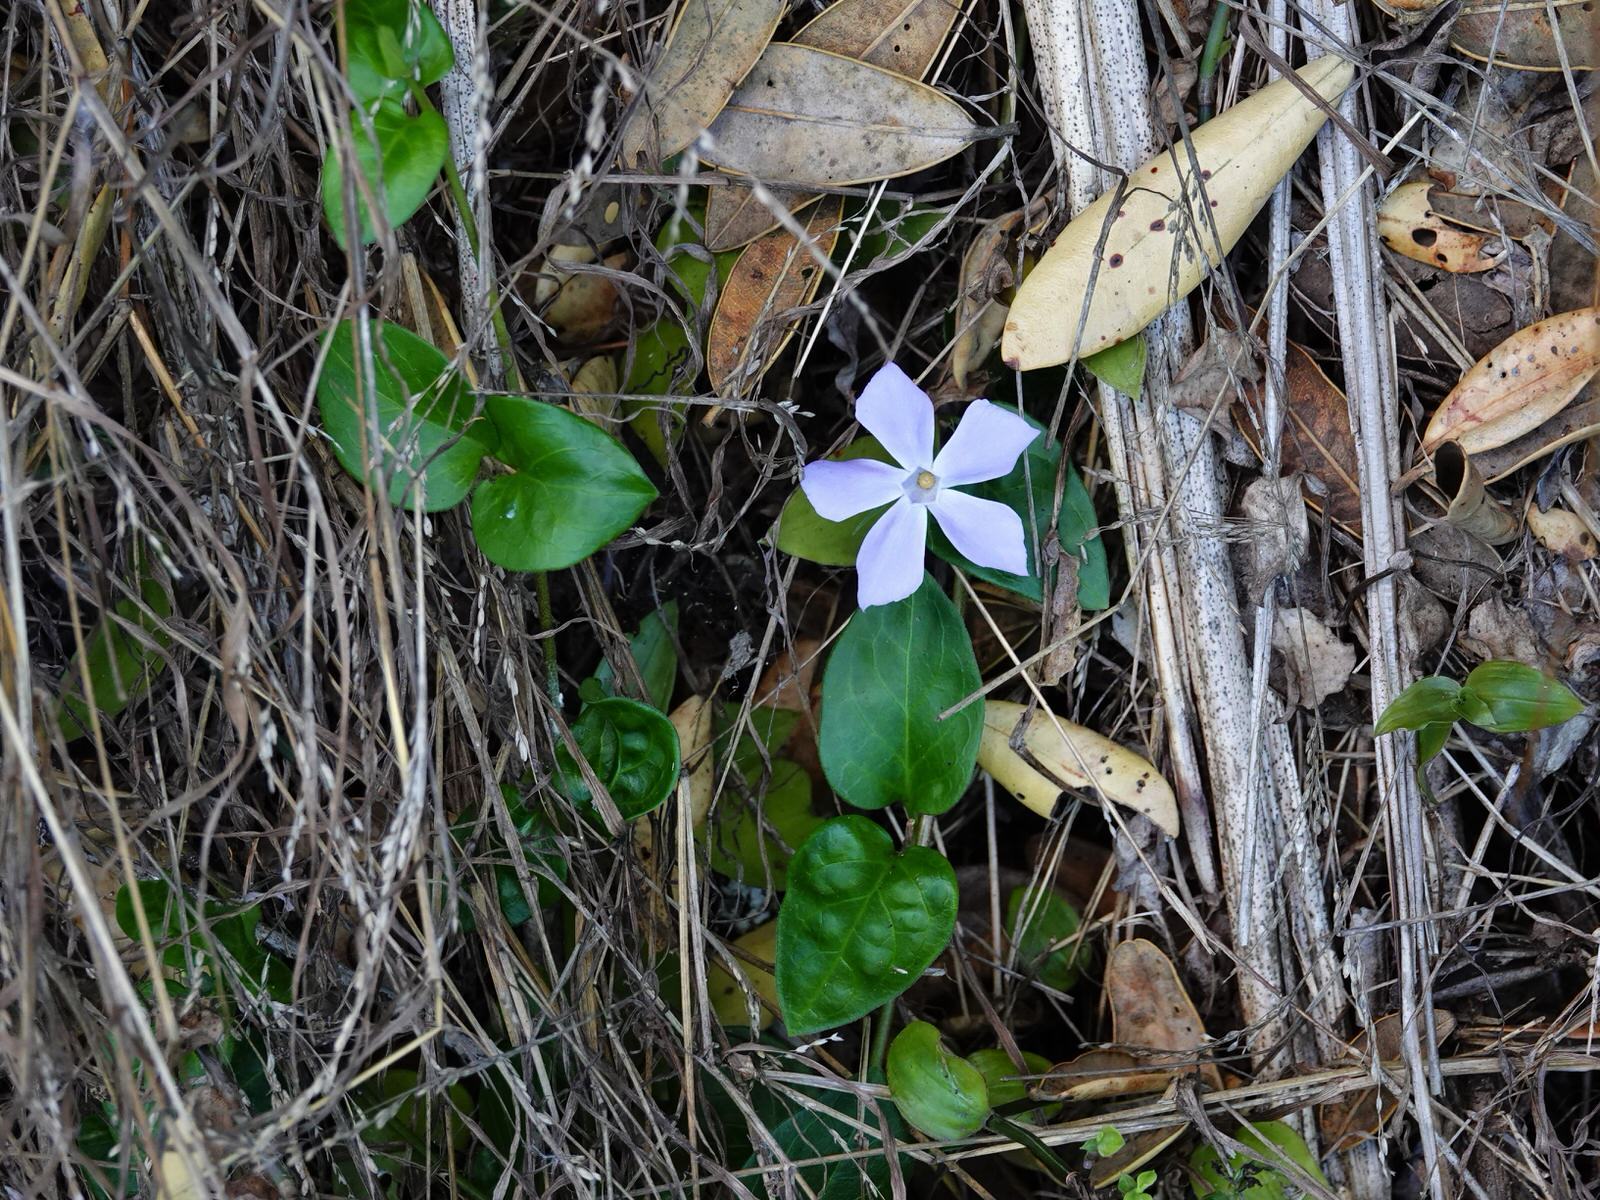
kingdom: Plantae
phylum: Tracheophyta
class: Magnoliopsida
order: Gentianales
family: Apocynaceae
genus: Vinca
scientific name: Vinca major
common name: Greater periwinkle
